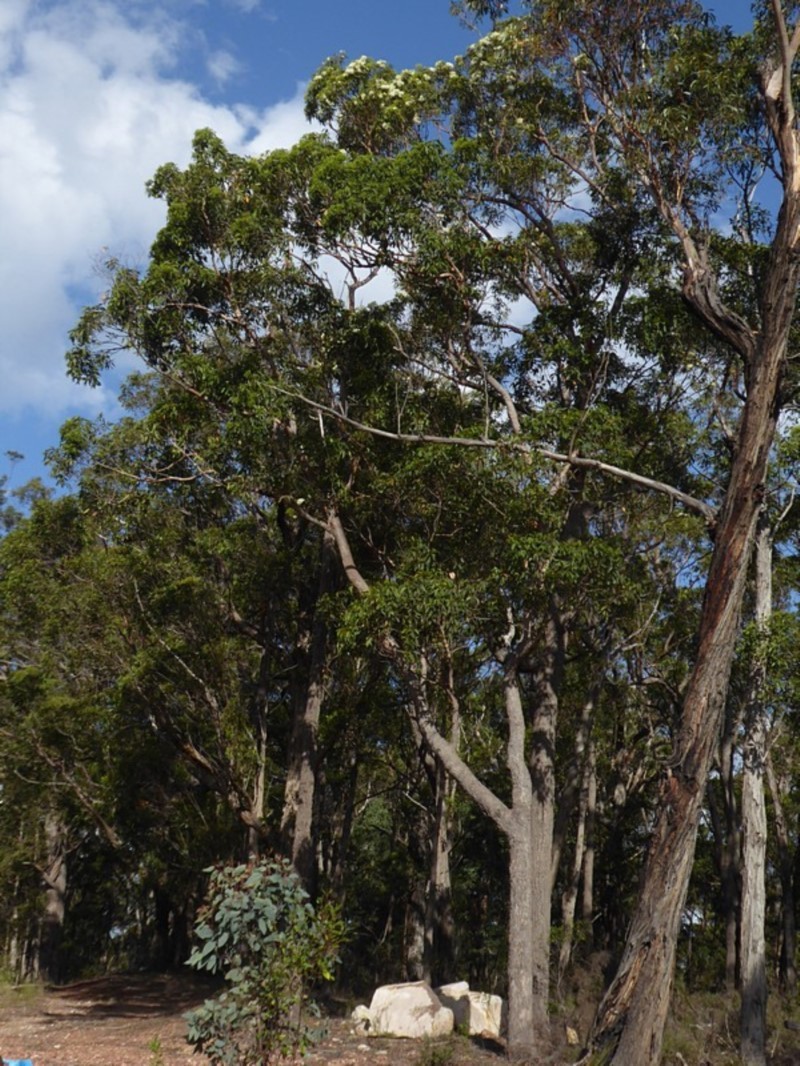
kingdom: Plantae
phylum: Tracheophyta
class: Magnoliopsida
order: Myrtales
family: Myrtaceae
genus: Corymbia
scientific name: Corymbia gummifera
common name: Red bloodwood
